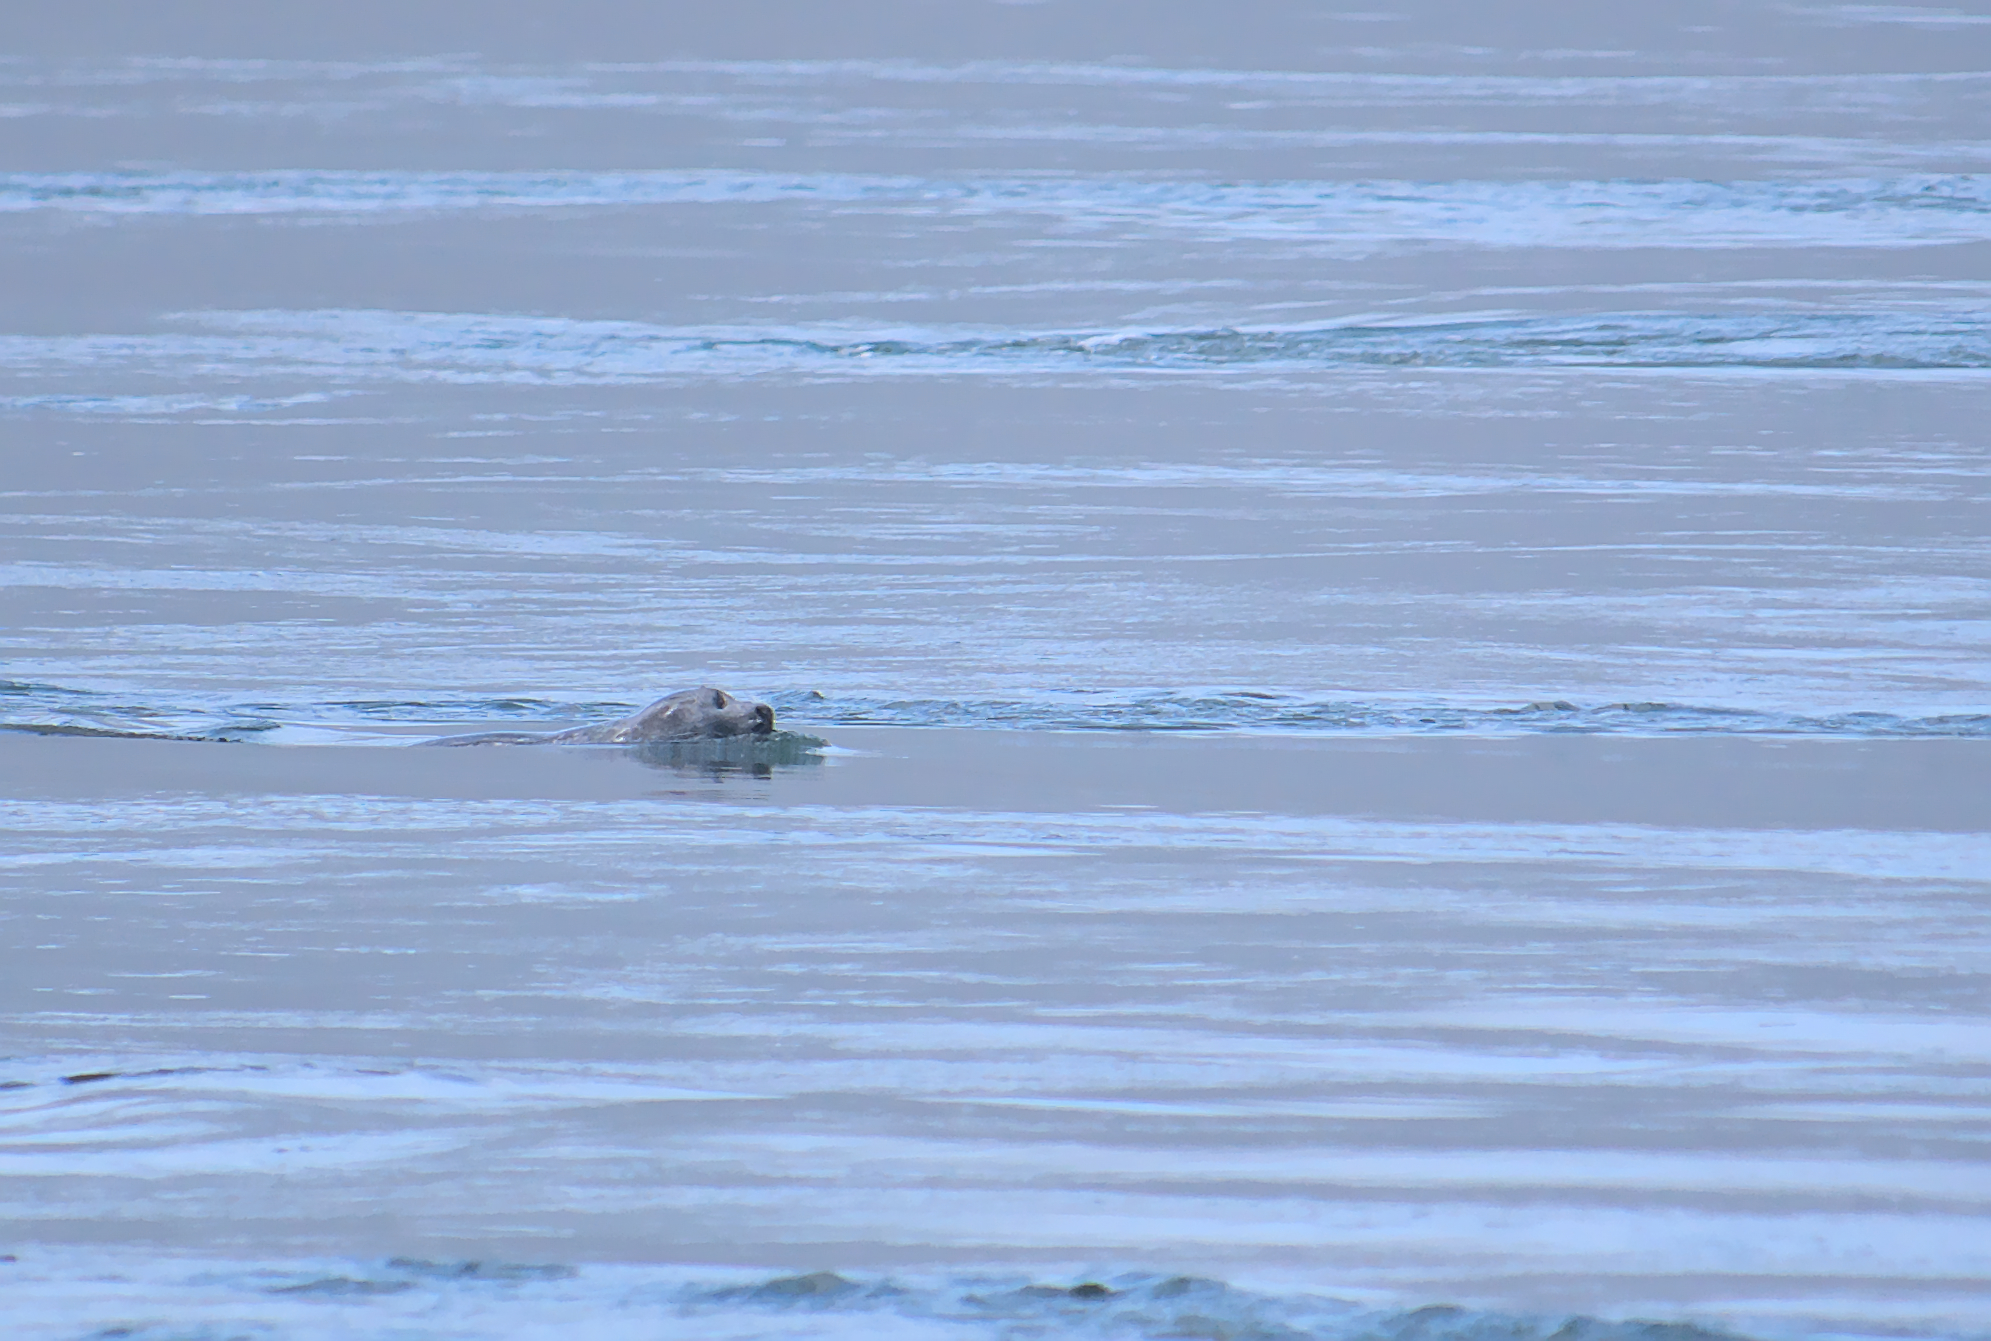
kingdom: Animalia
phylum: Chordata
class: Mammalia
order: Carnivora
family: Phocidae
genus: Phoca
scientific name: Phoca vitulina
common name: Harbor seal
